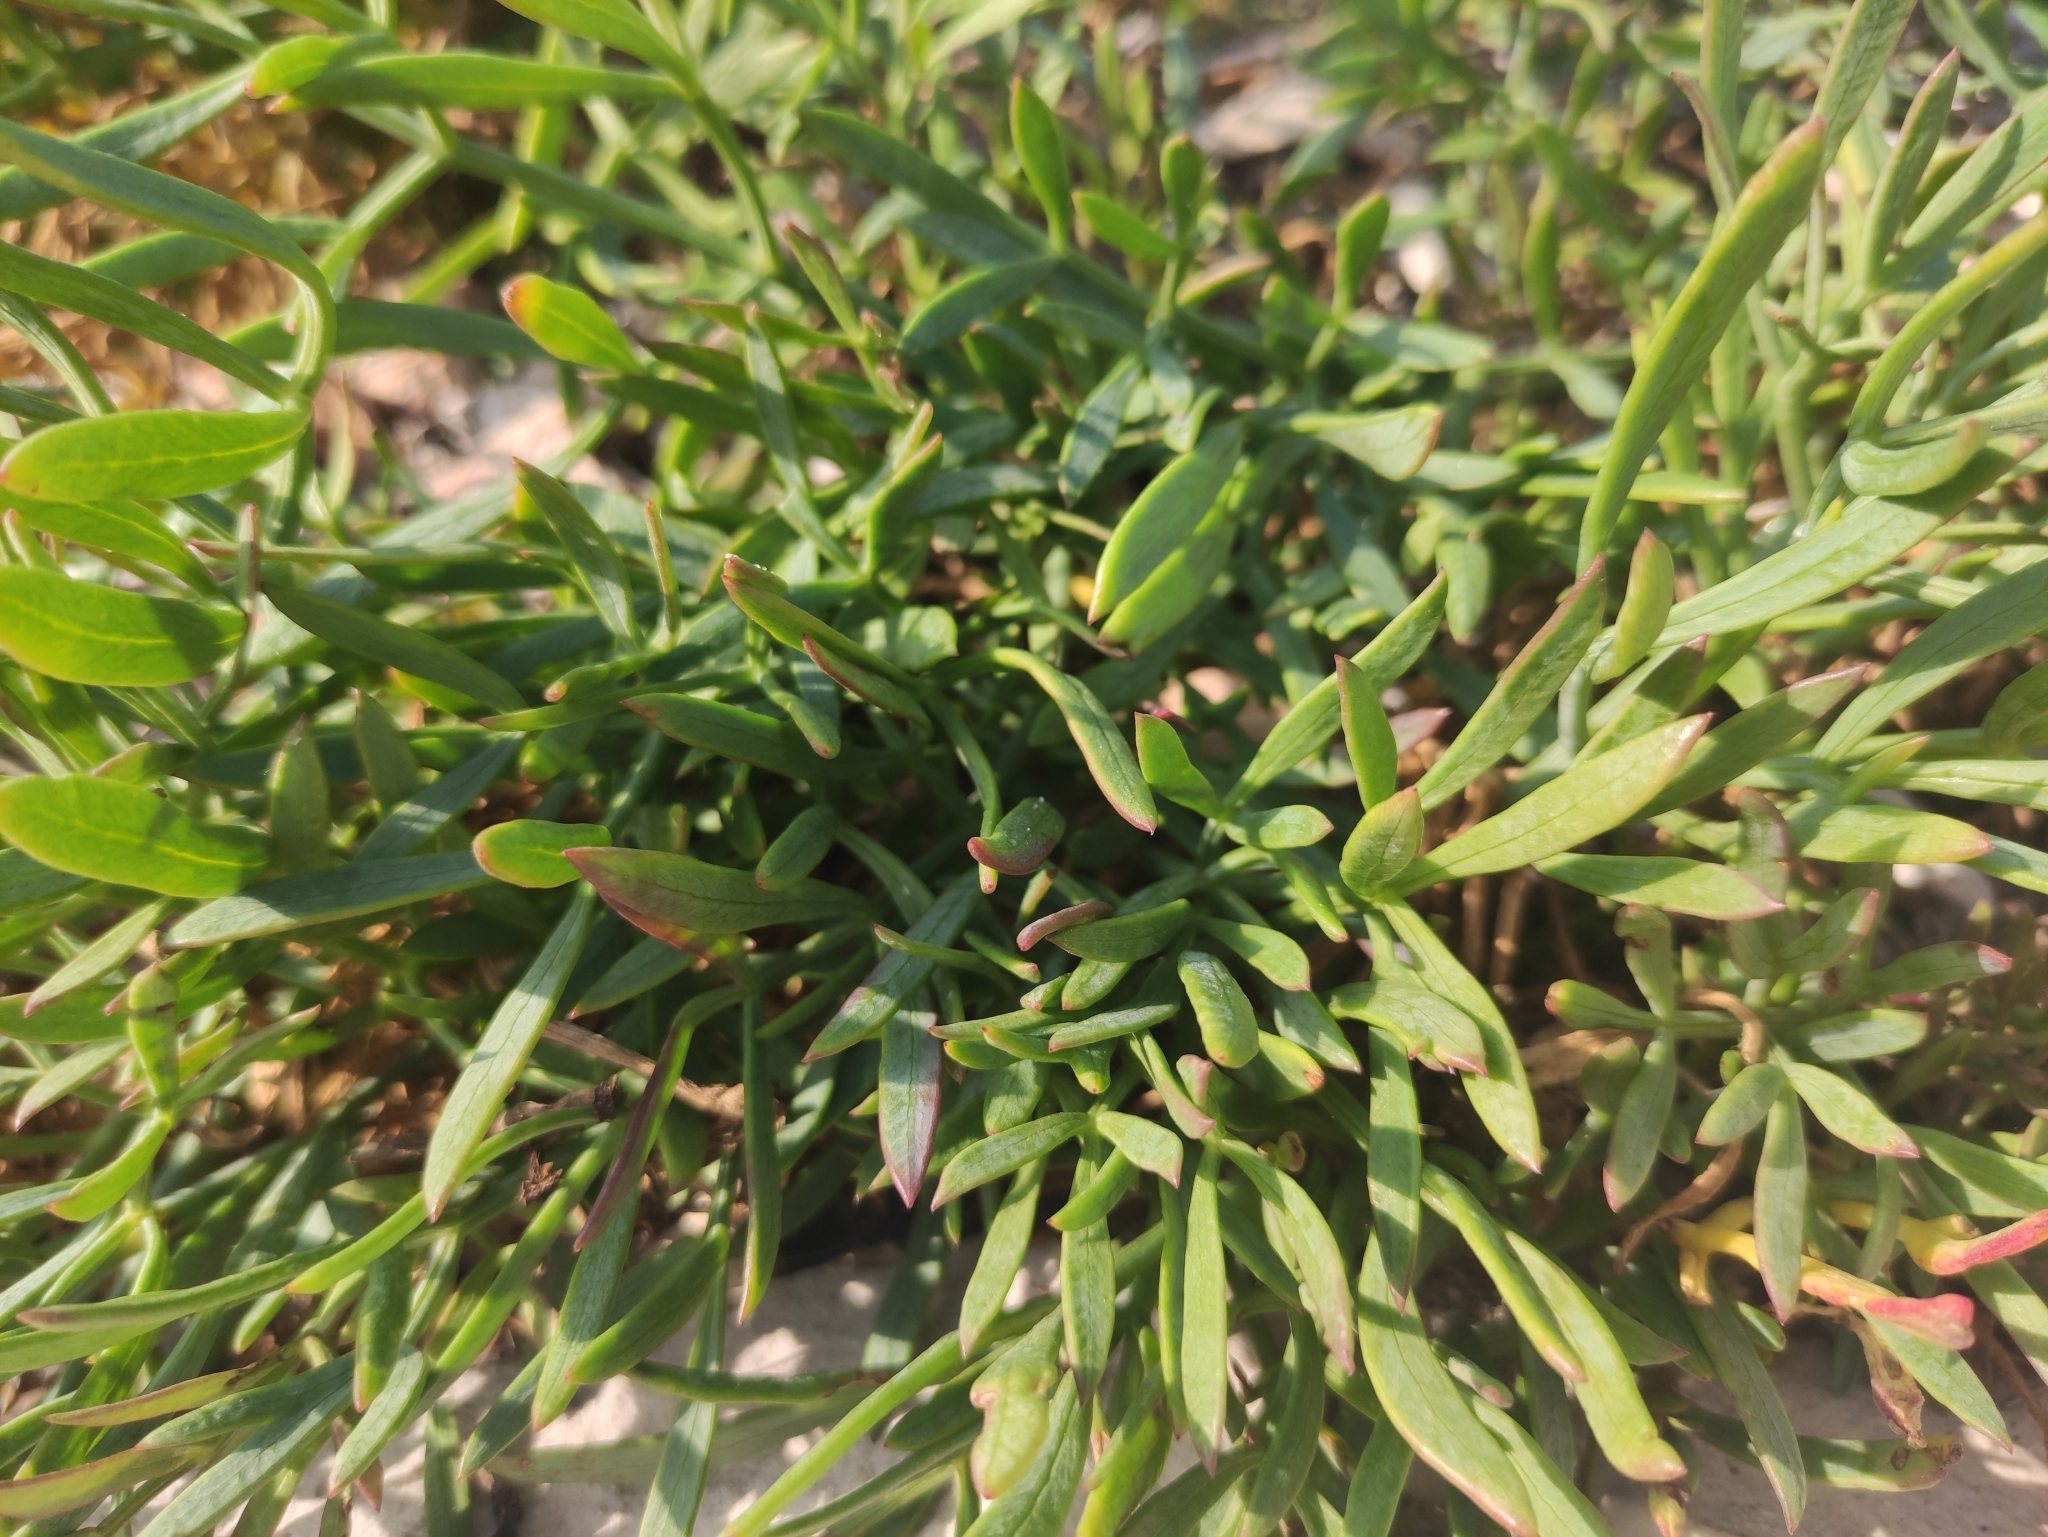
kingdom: Plantae
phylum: Tracheophyta
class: Magnoliopsida
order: Apiales
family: Apiaceae
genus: Crithmum
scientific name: Crithmum maritimum
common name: Rock samphire
